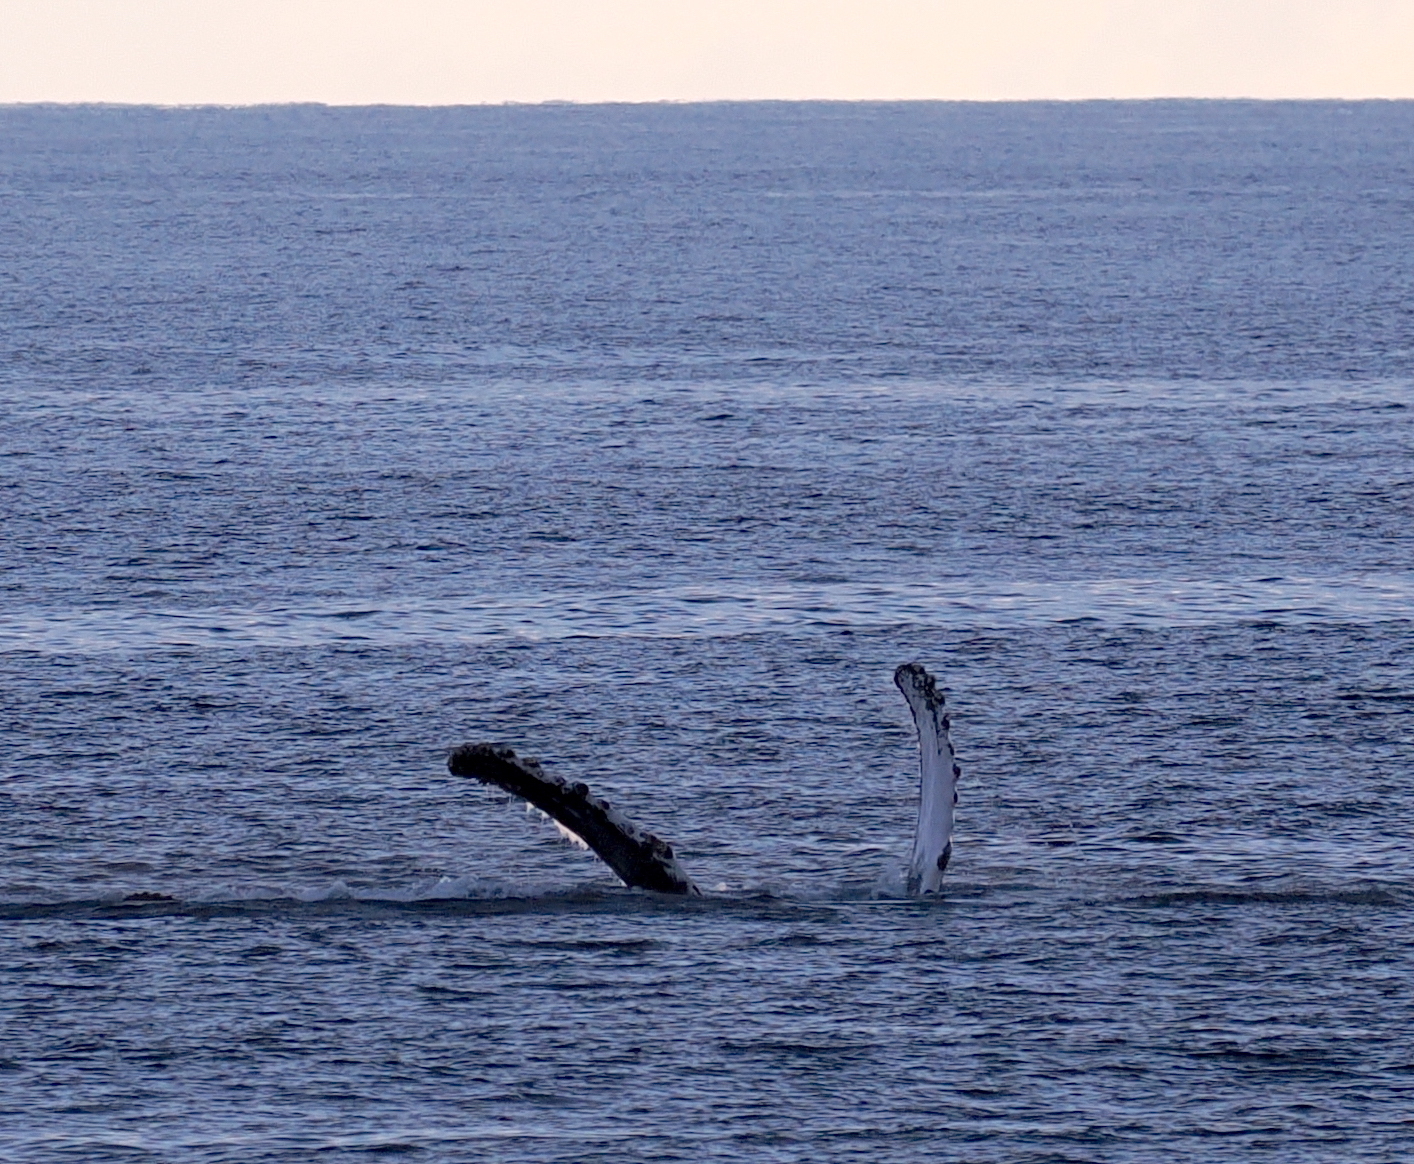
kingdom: Animalia
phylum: Chordata
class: Mammalia
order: Cetacea
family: Balaenopteridae
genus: Megaptera
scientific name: Megaptera novaeangliae
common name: Humpback whale
